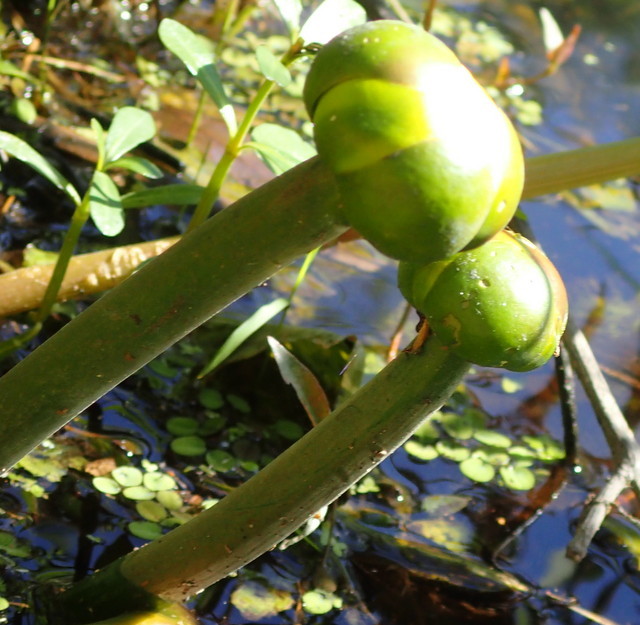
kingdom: Plantae
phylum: Tracheophyta
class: Magnoliopsida
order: Nymphaeales
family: Nymphaeaceae
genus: Nuphar
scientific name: Nuphar advena
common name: Spatter-dock
